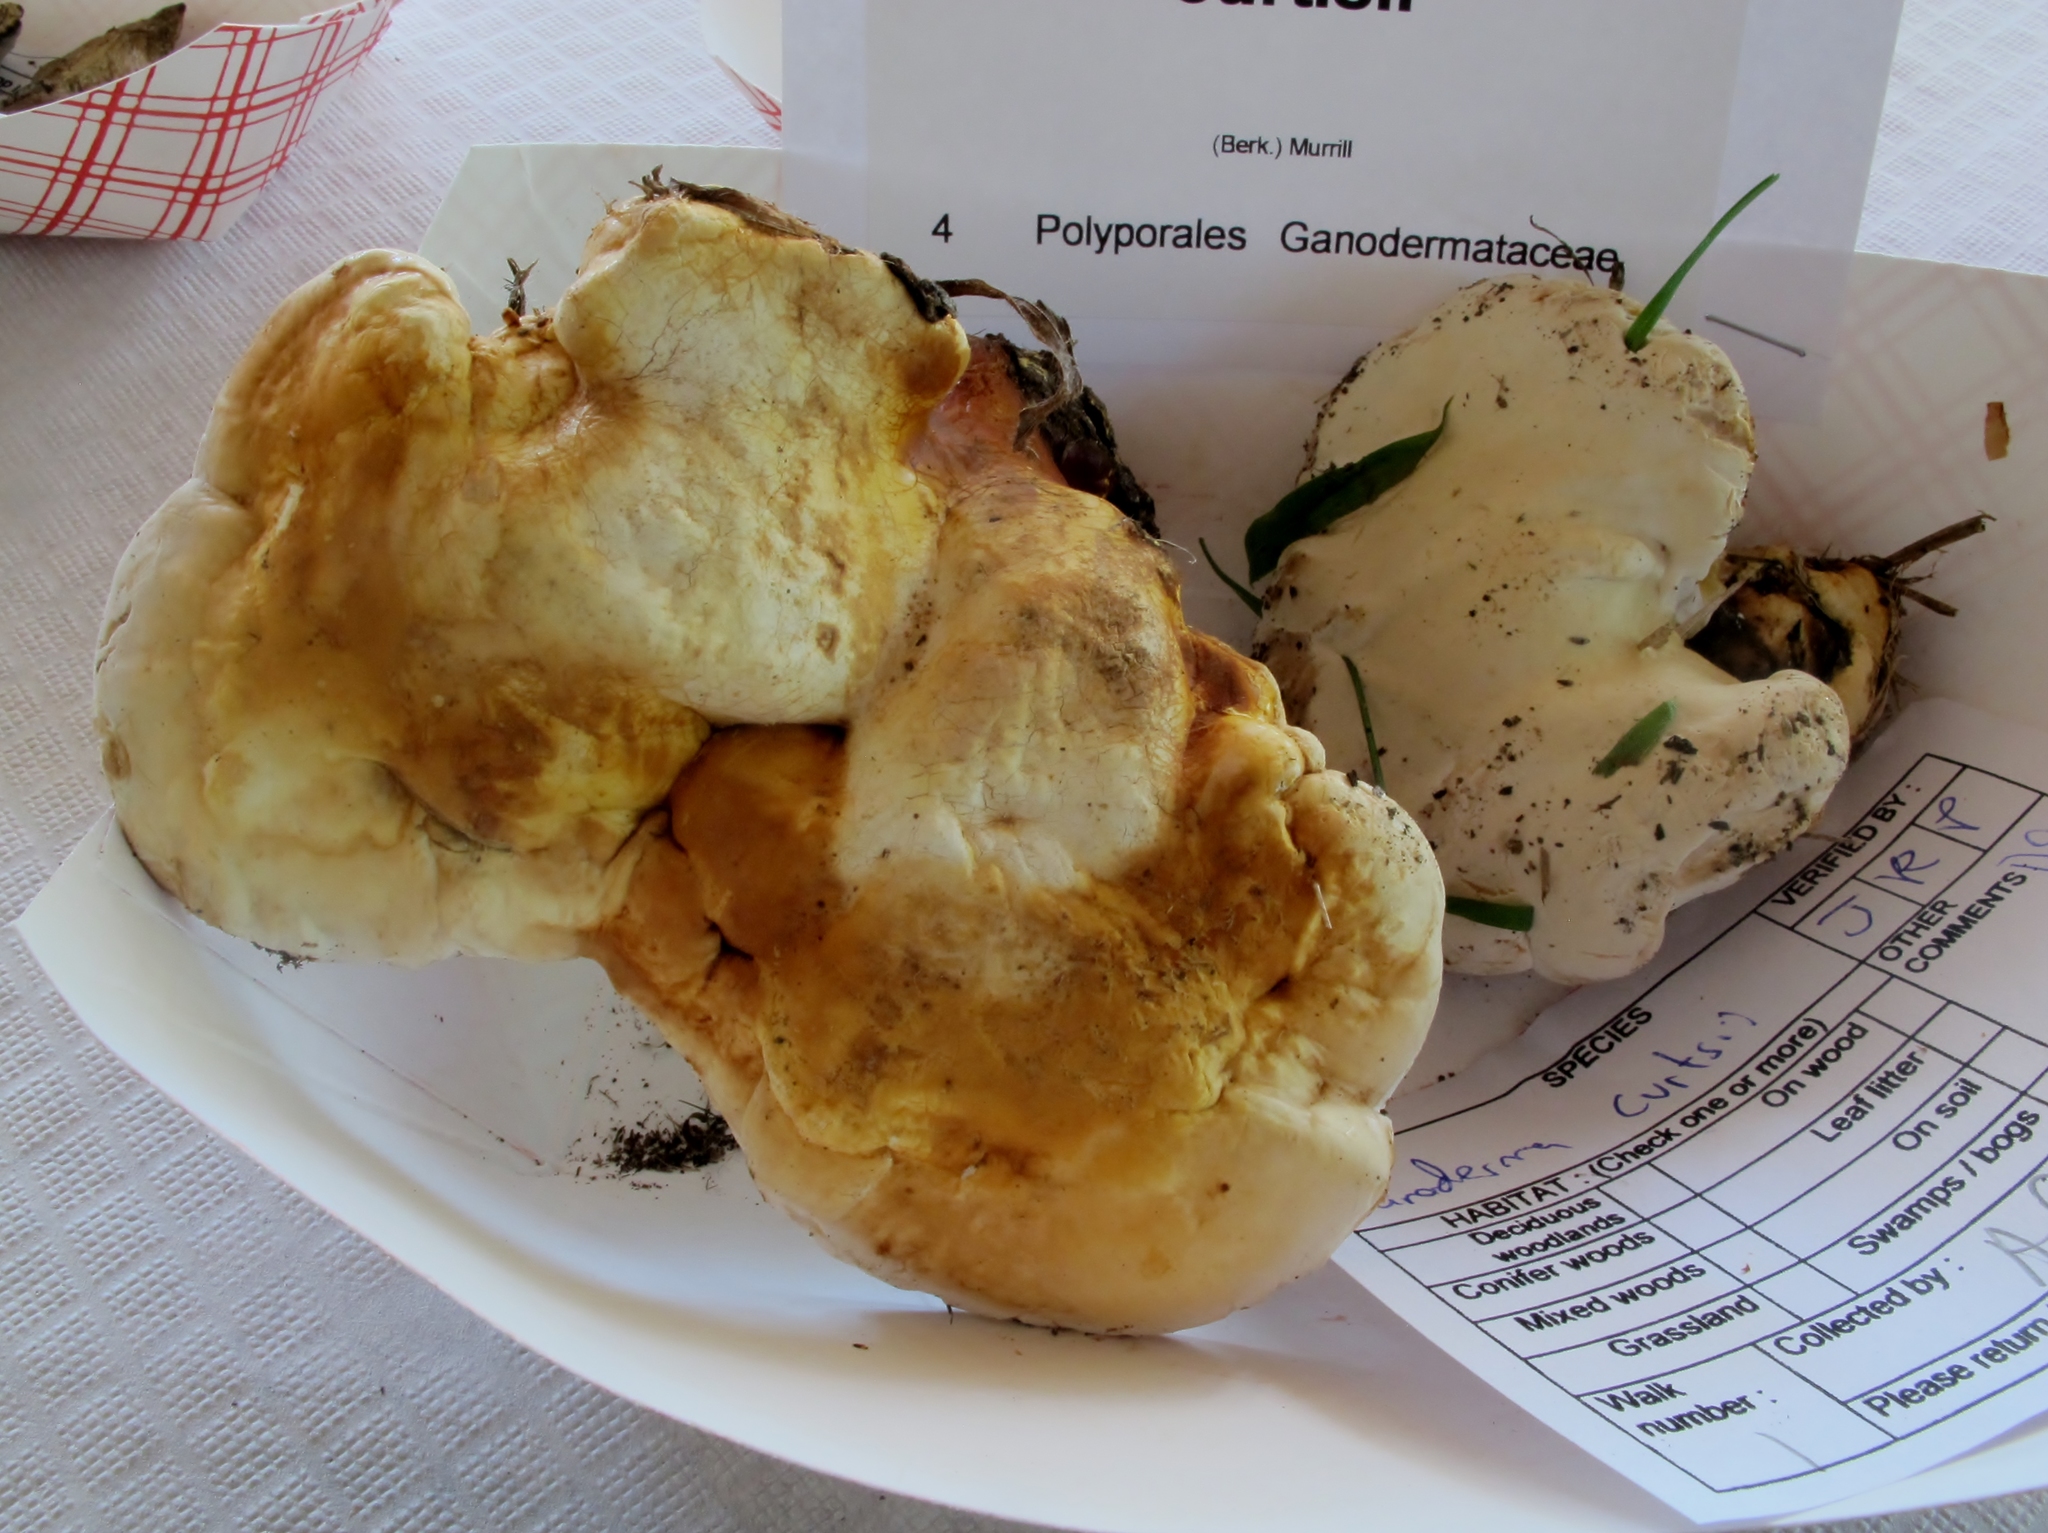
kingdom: Fungi
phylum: Basidiomycota
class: Agaricomycetes
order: Polyporales
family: Polyporaceae
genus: Ganoderma
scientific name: Ganoderma curtisii
